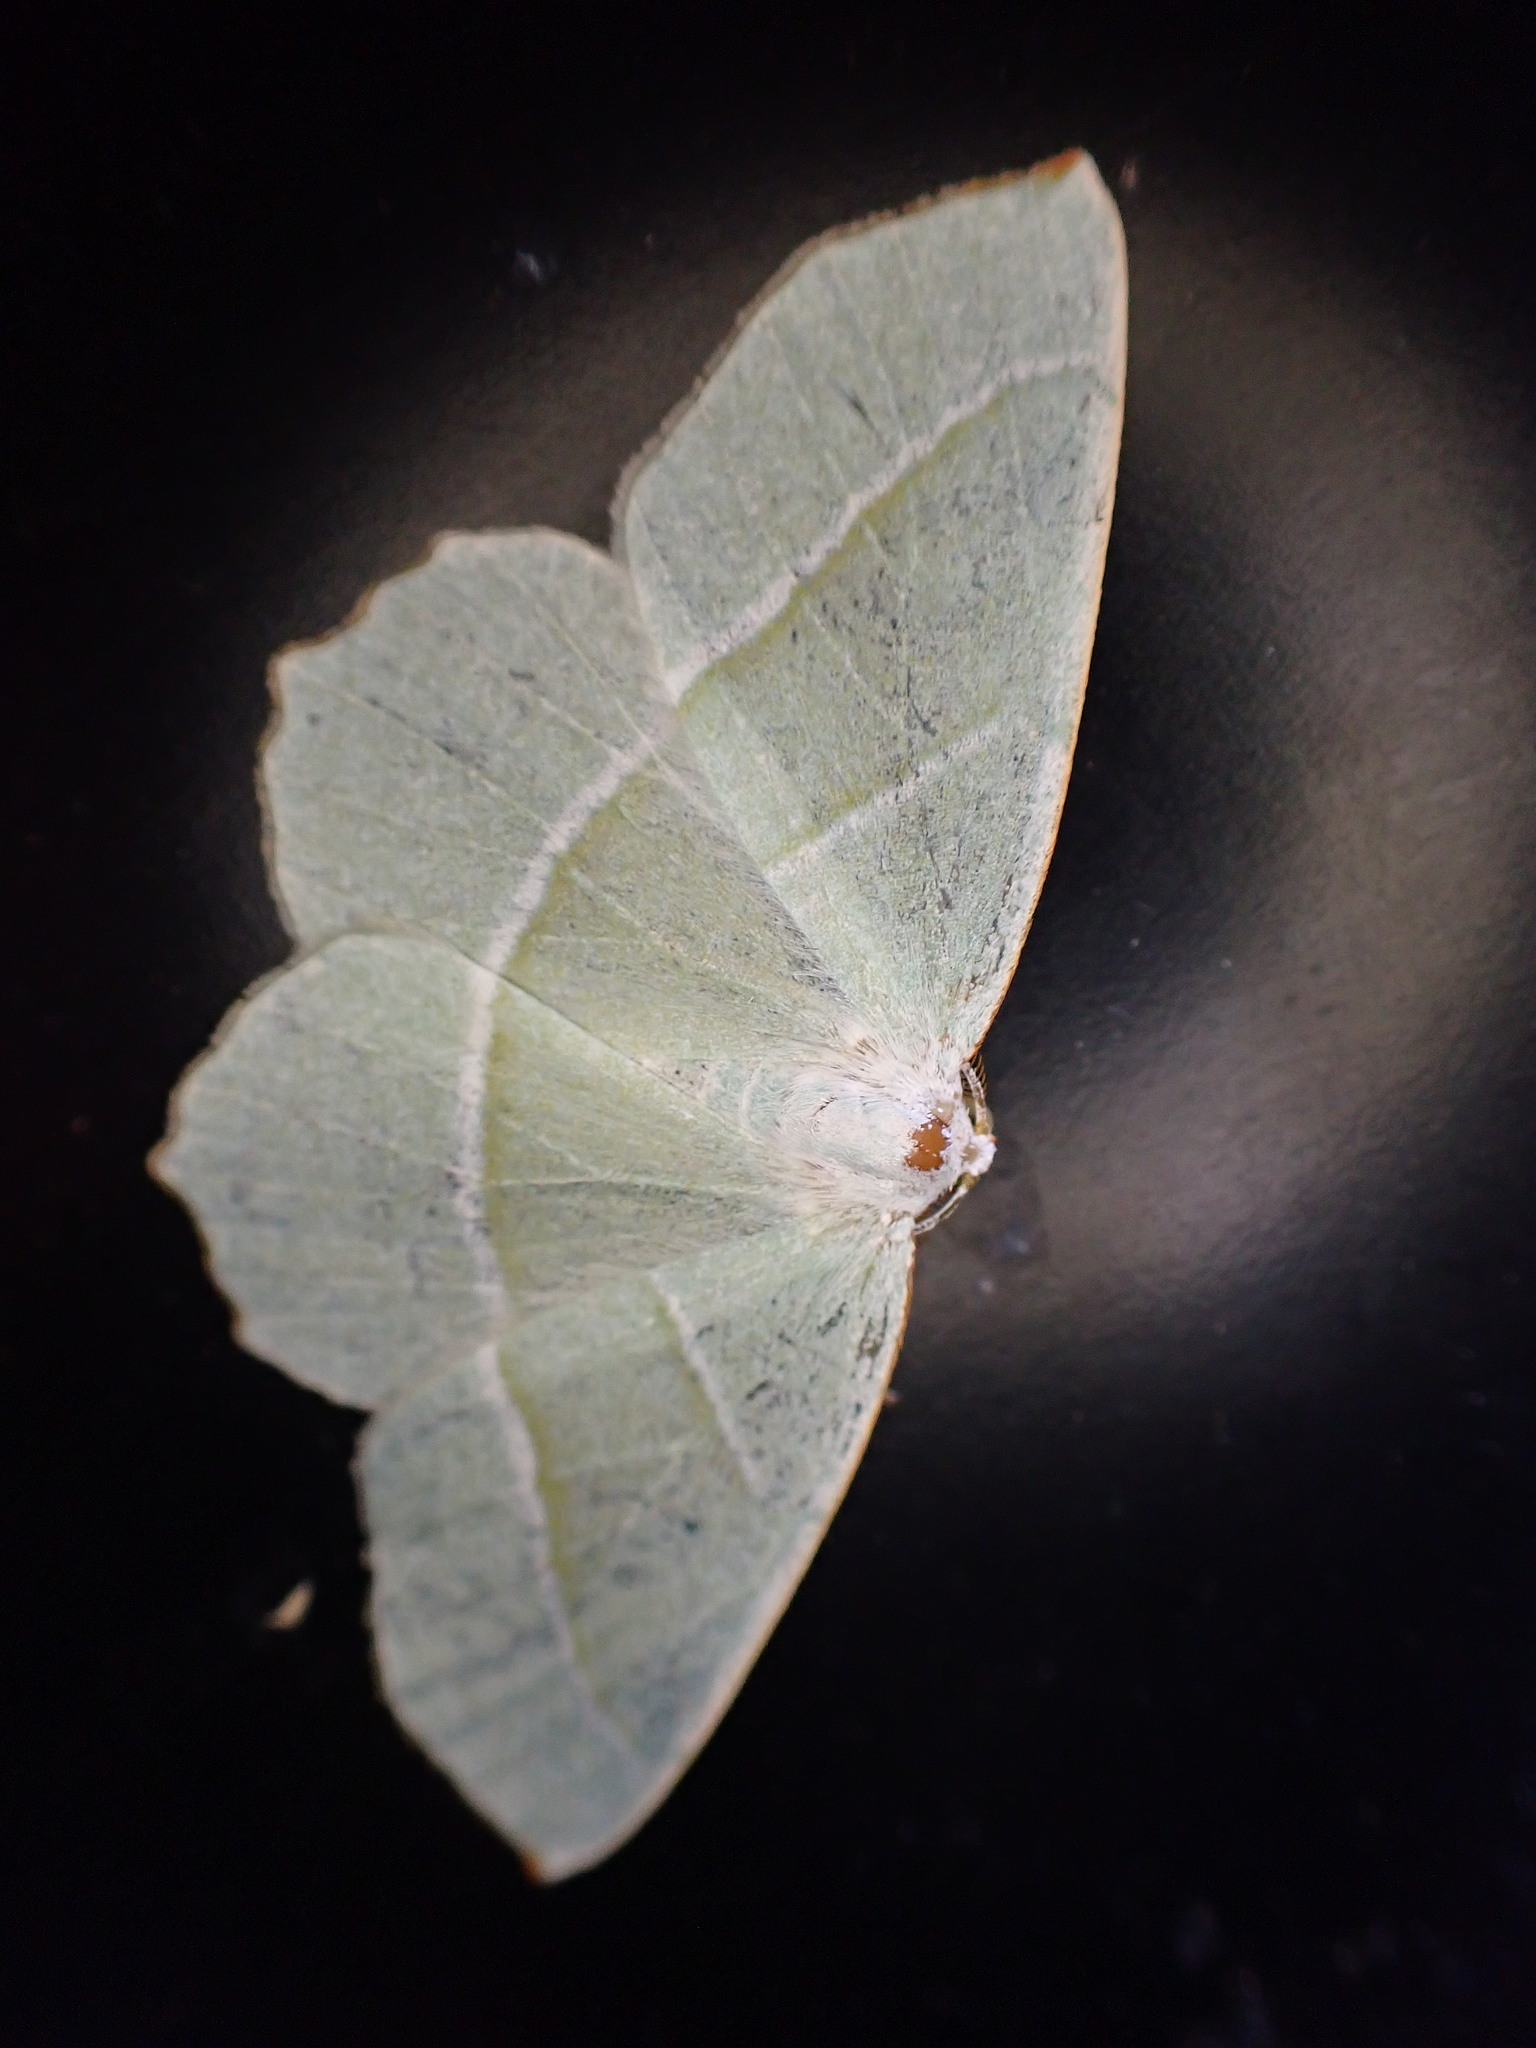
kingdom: Animalia
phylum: Arthropoda
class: Insecta
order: Lepidoptera
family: Geometridae
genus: Campaea
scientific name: Campaea margaritaria
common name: Light emerald
